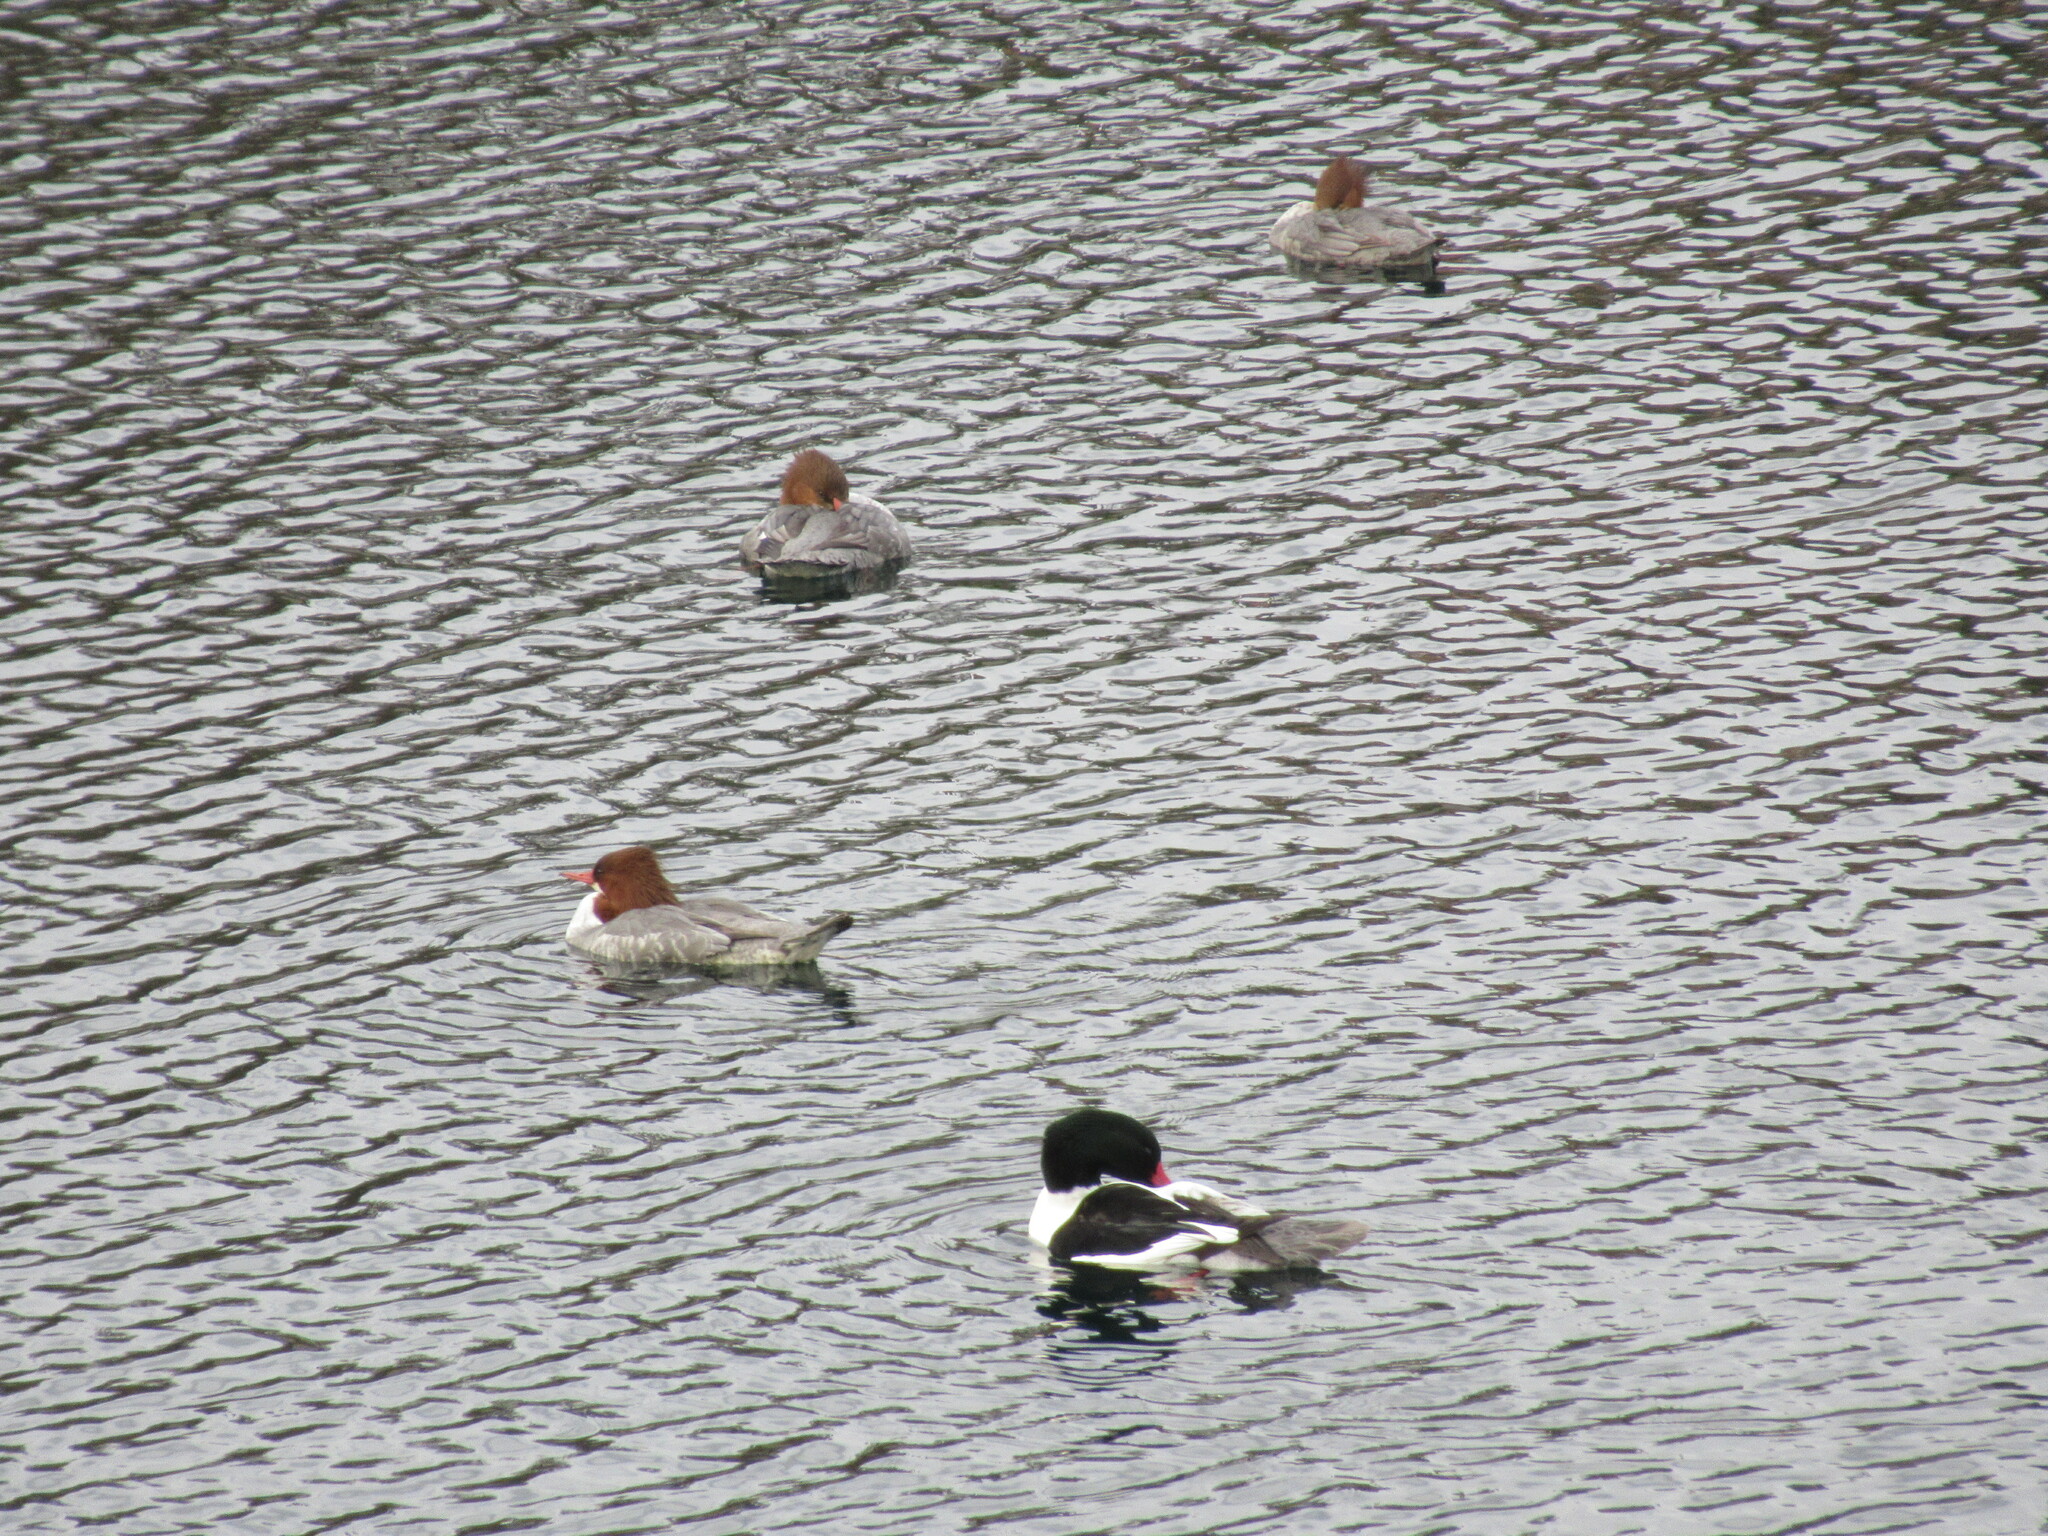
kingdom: Animalia
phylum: Chordata
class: Aves
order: Anseriformes
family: Anatidae
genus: Mergus
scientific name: Mergus merganser
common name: Common merganser
